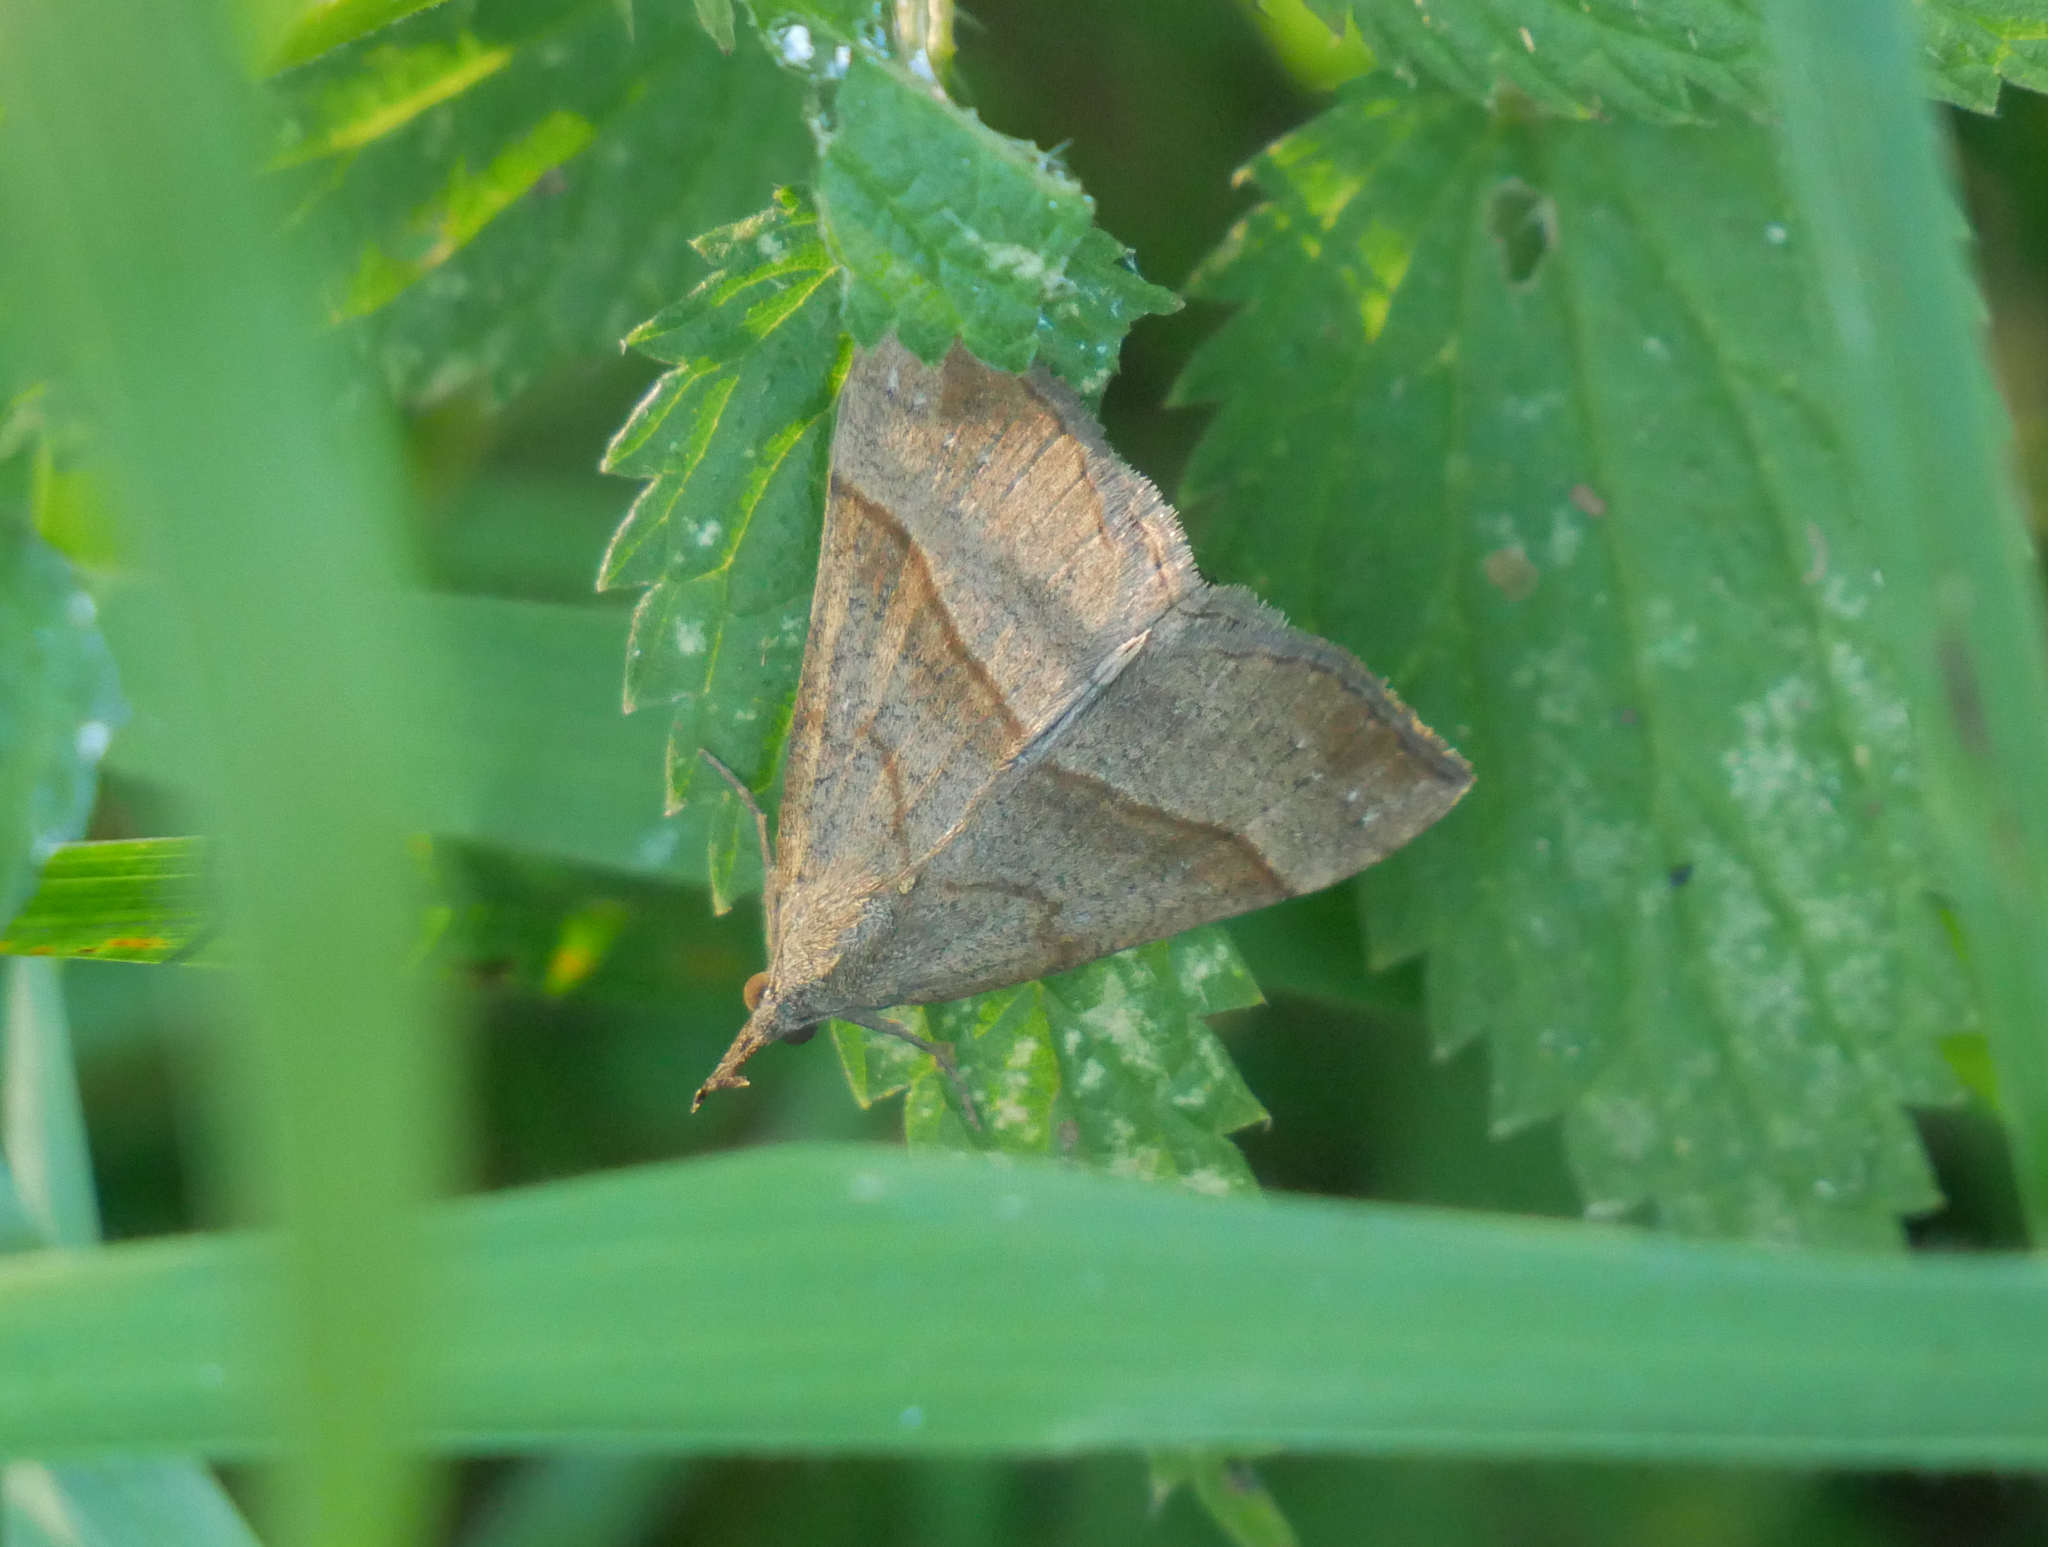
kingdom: Animalia
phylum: Arthropoda
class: Insecta
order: Lepidoptera
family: Erebidae
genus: Hypena
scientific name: Hypena proboscidalis
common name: Snout
